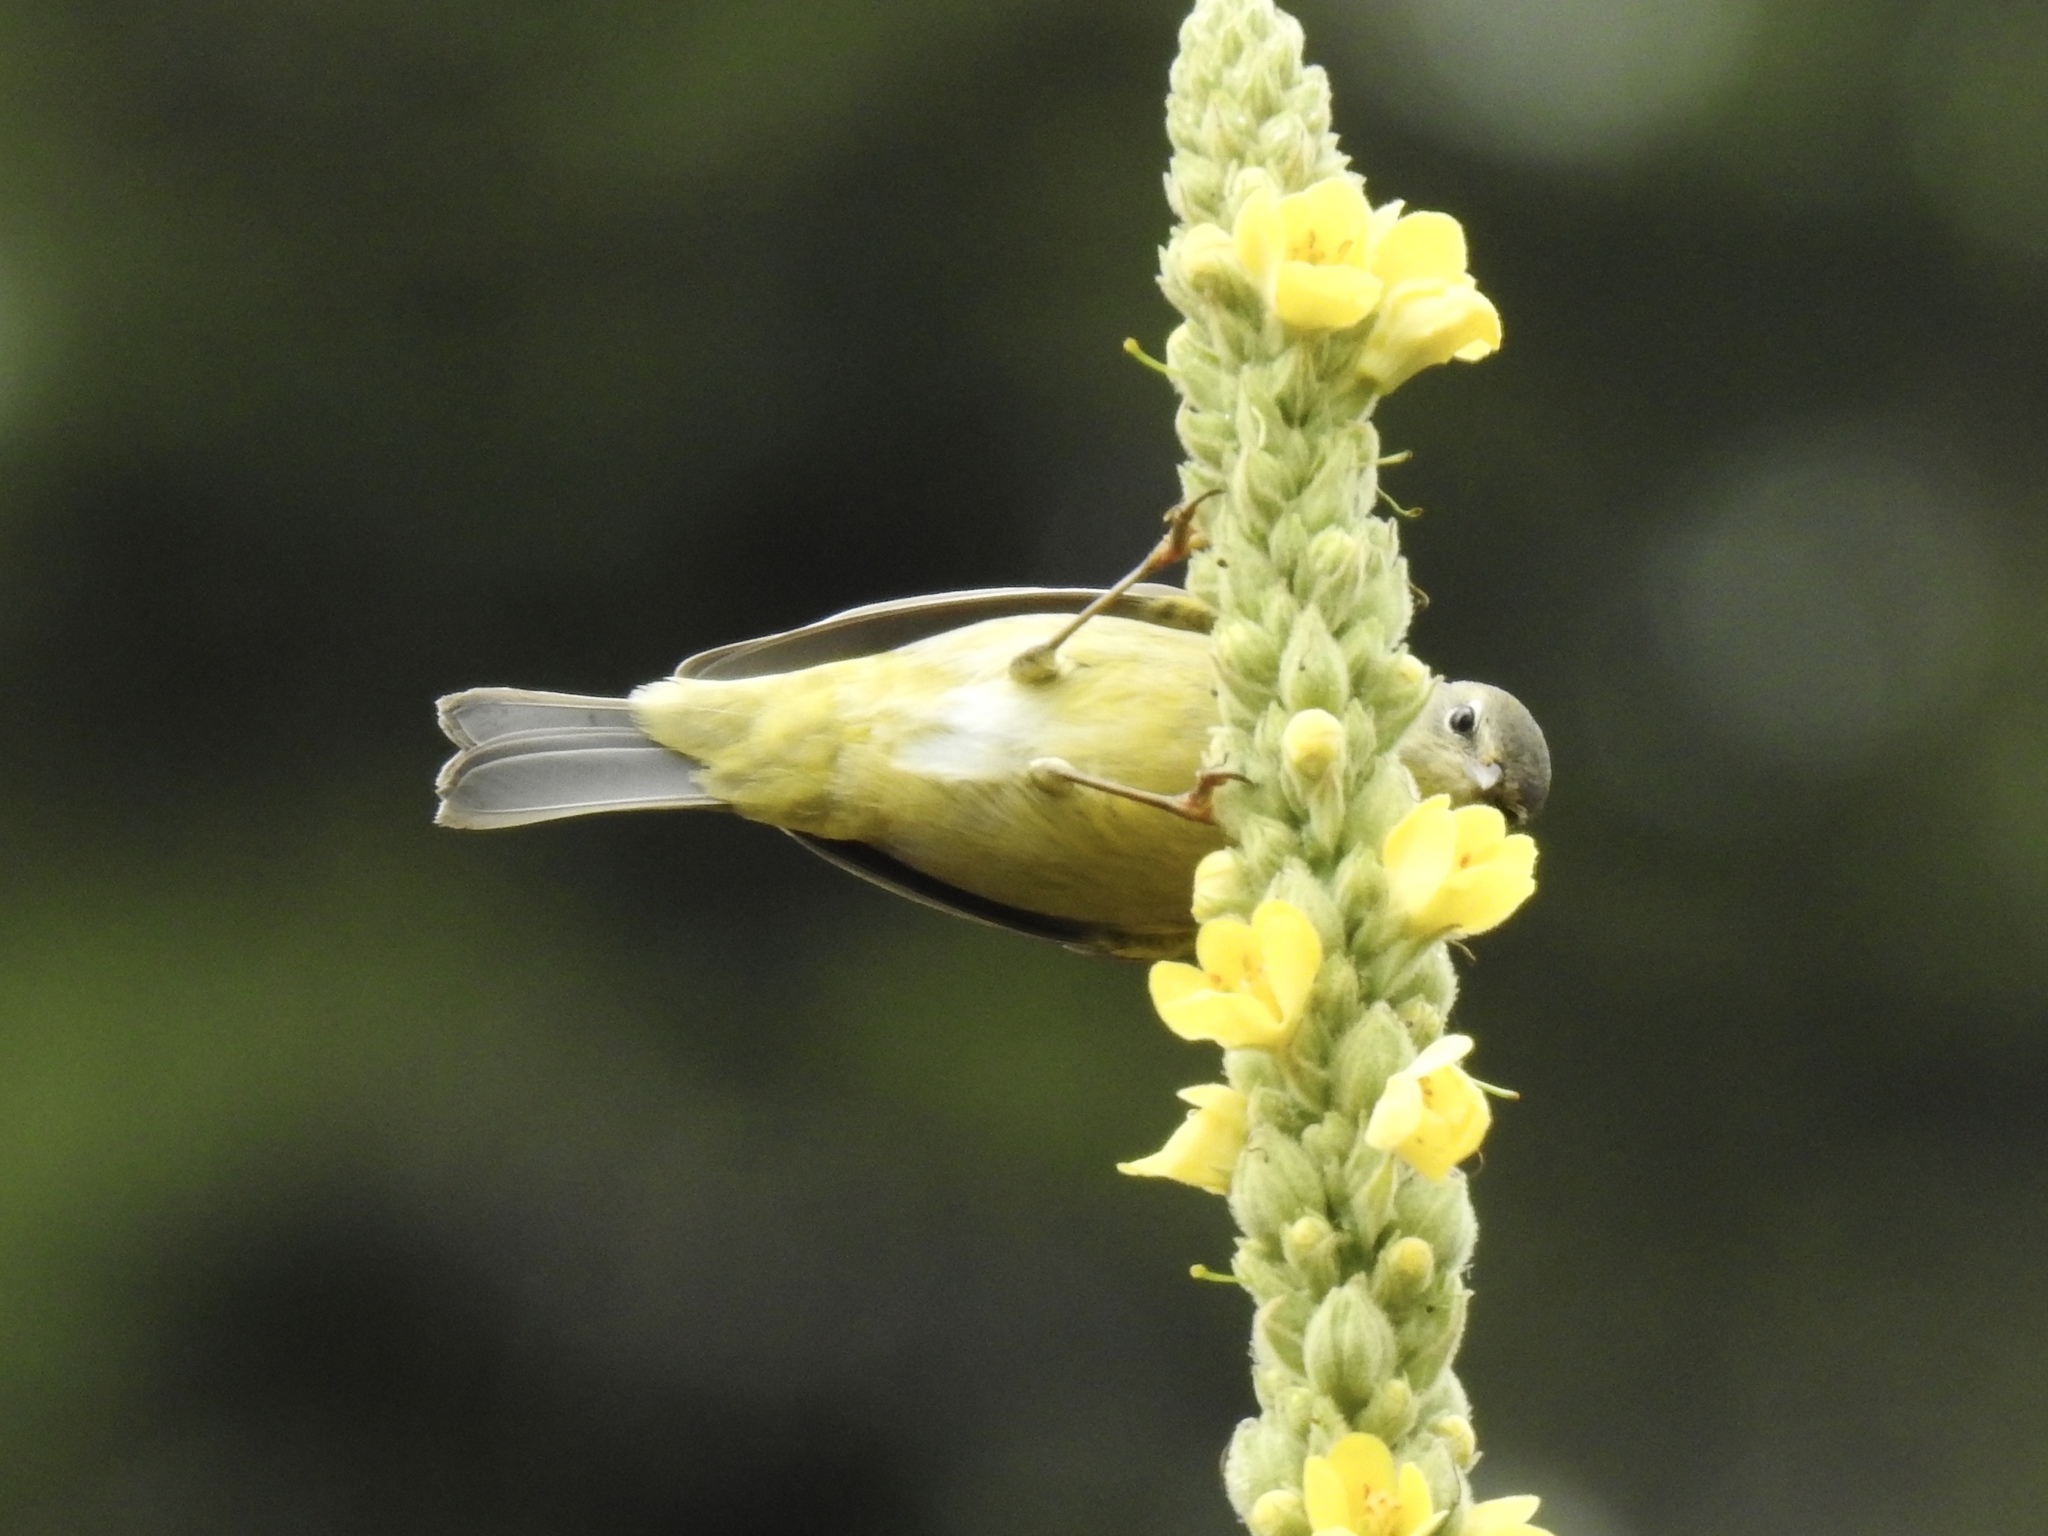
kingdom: Animalia
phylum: Chordata
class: Aves
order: Passeriformes
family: Parulidae
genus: Leiothlypis
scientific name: Leiothlypis celata
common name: Orange-crowned warbler
